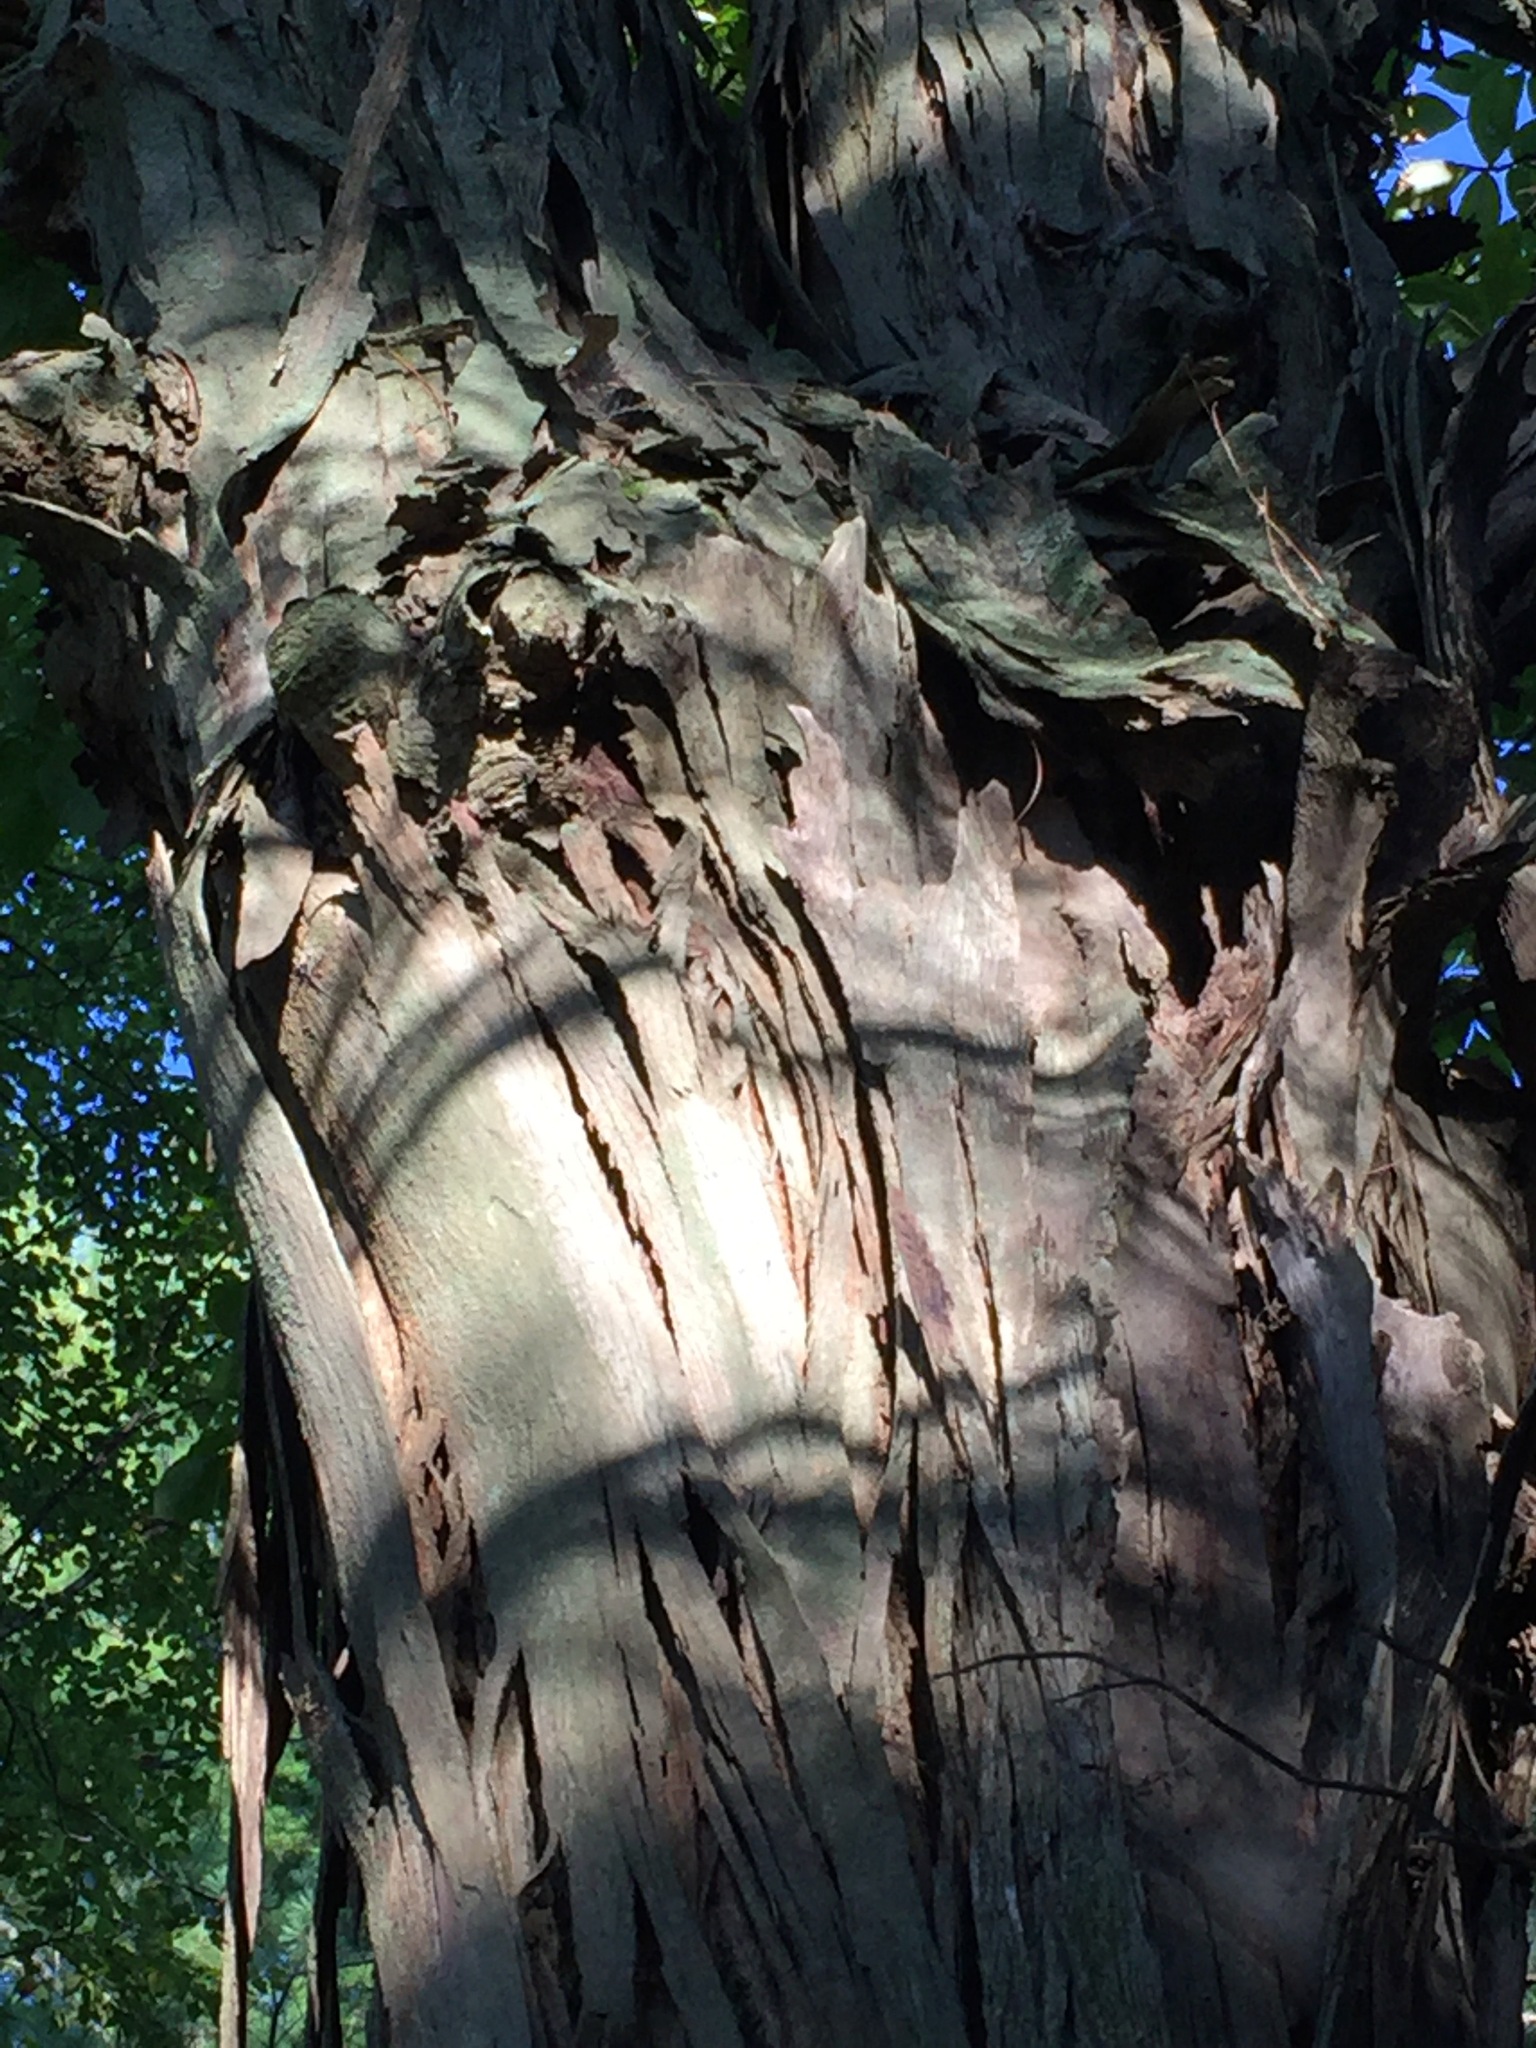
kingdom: Plantae
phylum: Tracheophyta
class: Magnoliopsida
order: Fagales
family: Juglandaceae
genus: Carya
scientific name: Carya ovata
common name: Shagbark hickory
